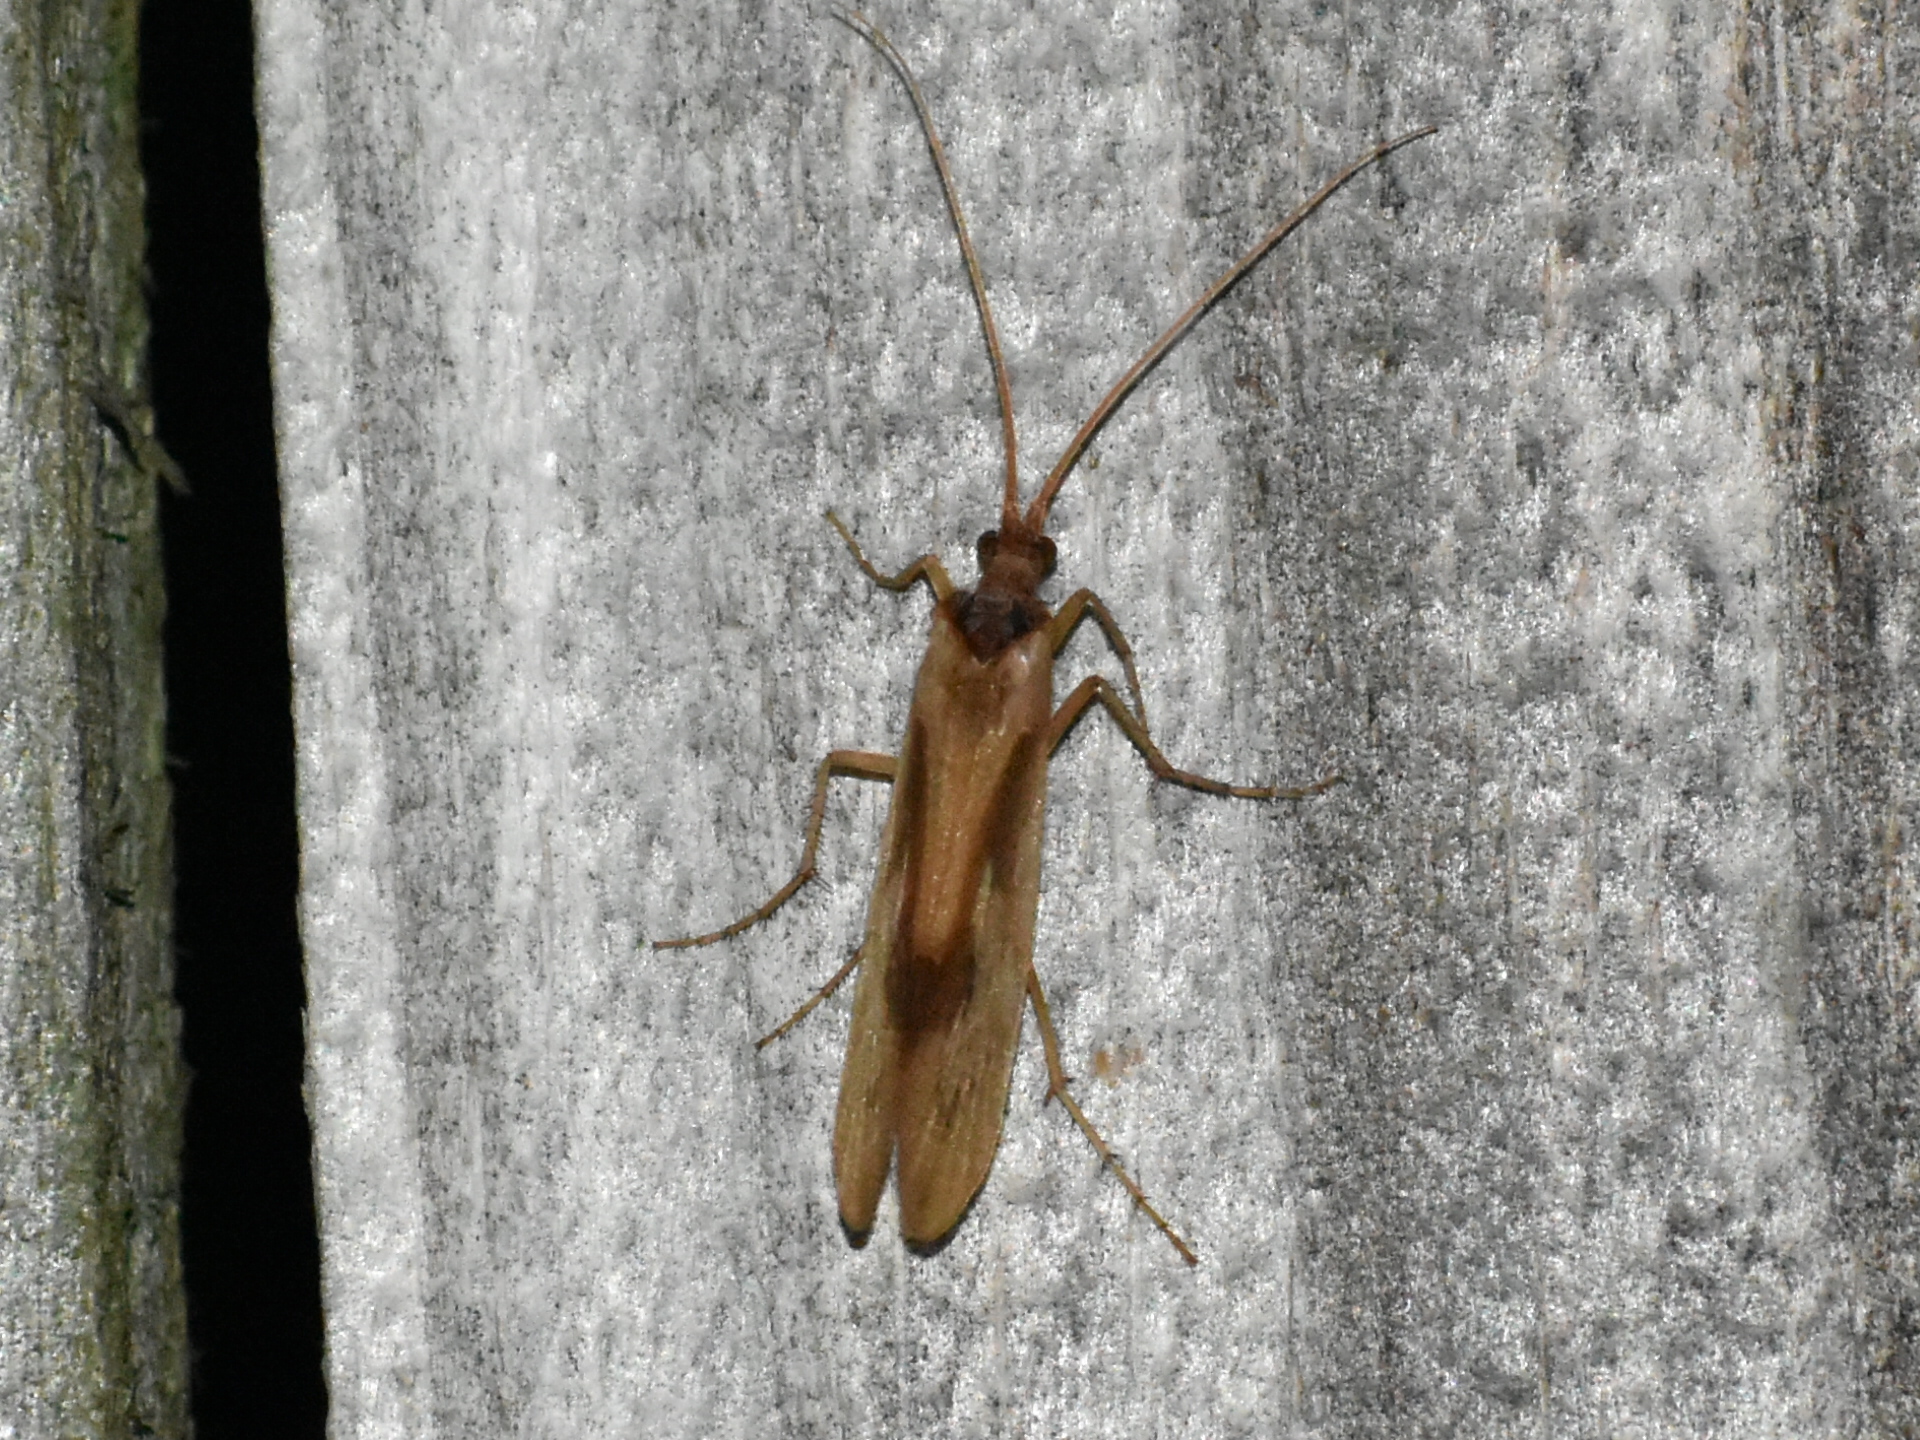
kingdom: Animalia
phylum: Arthropoda
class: Insecta
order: Trichoptera
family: Limnephilidae
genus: Platycentropus
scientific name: Platycentropus radiatus
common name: Chocolate-and-cream sedge
